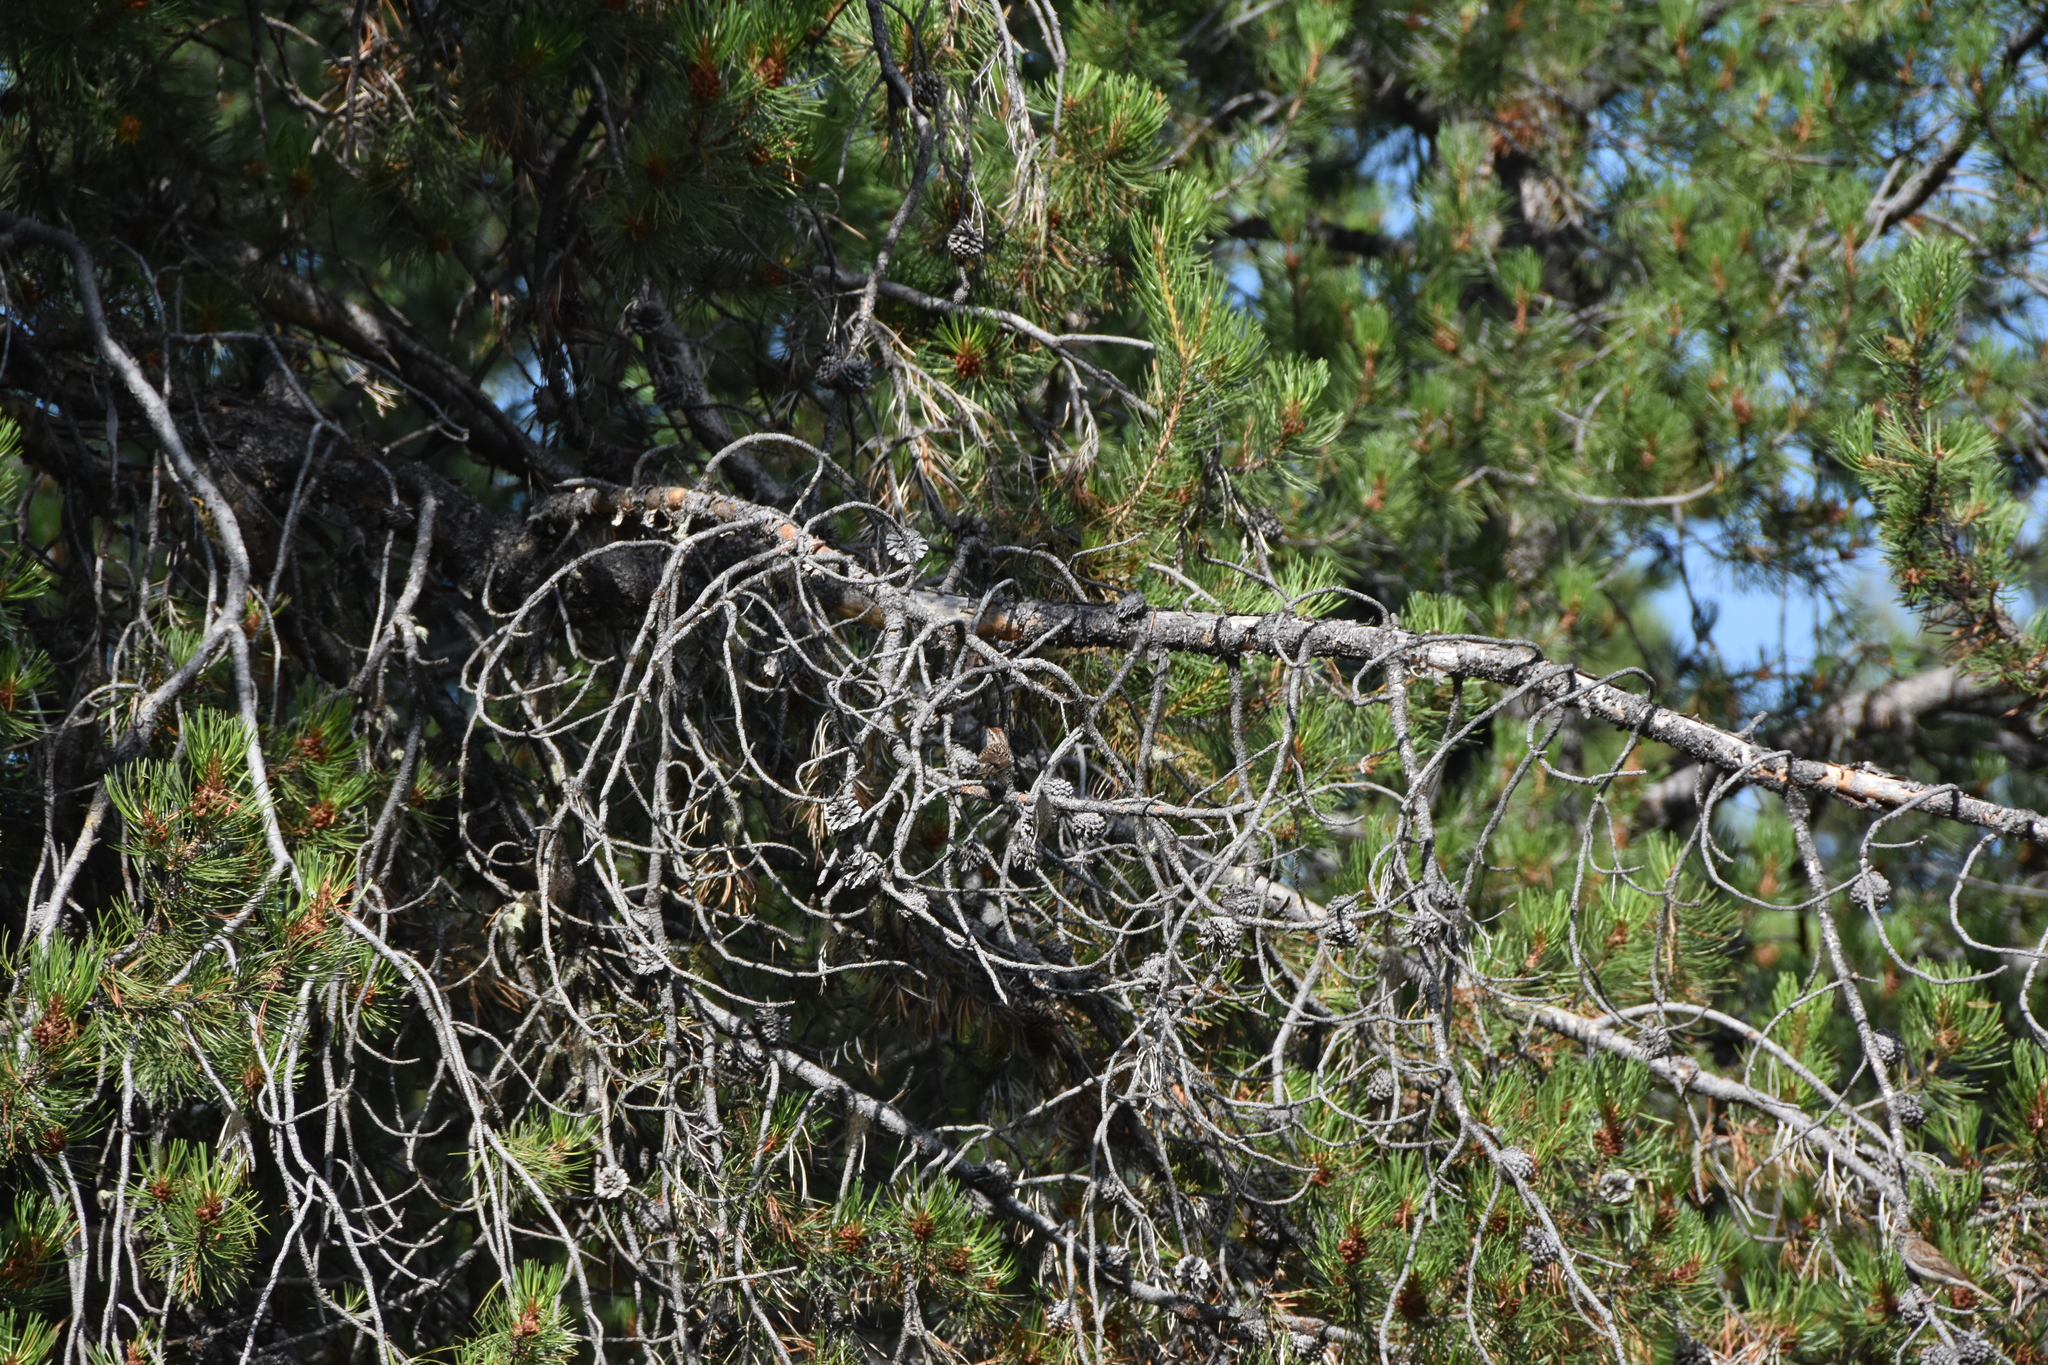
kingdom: Animalia
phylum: Chordata
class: Aves
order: Passeriformes
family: Passerellidae
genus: Spizella
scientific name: Spizella passerina
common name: Chipping sparrow
